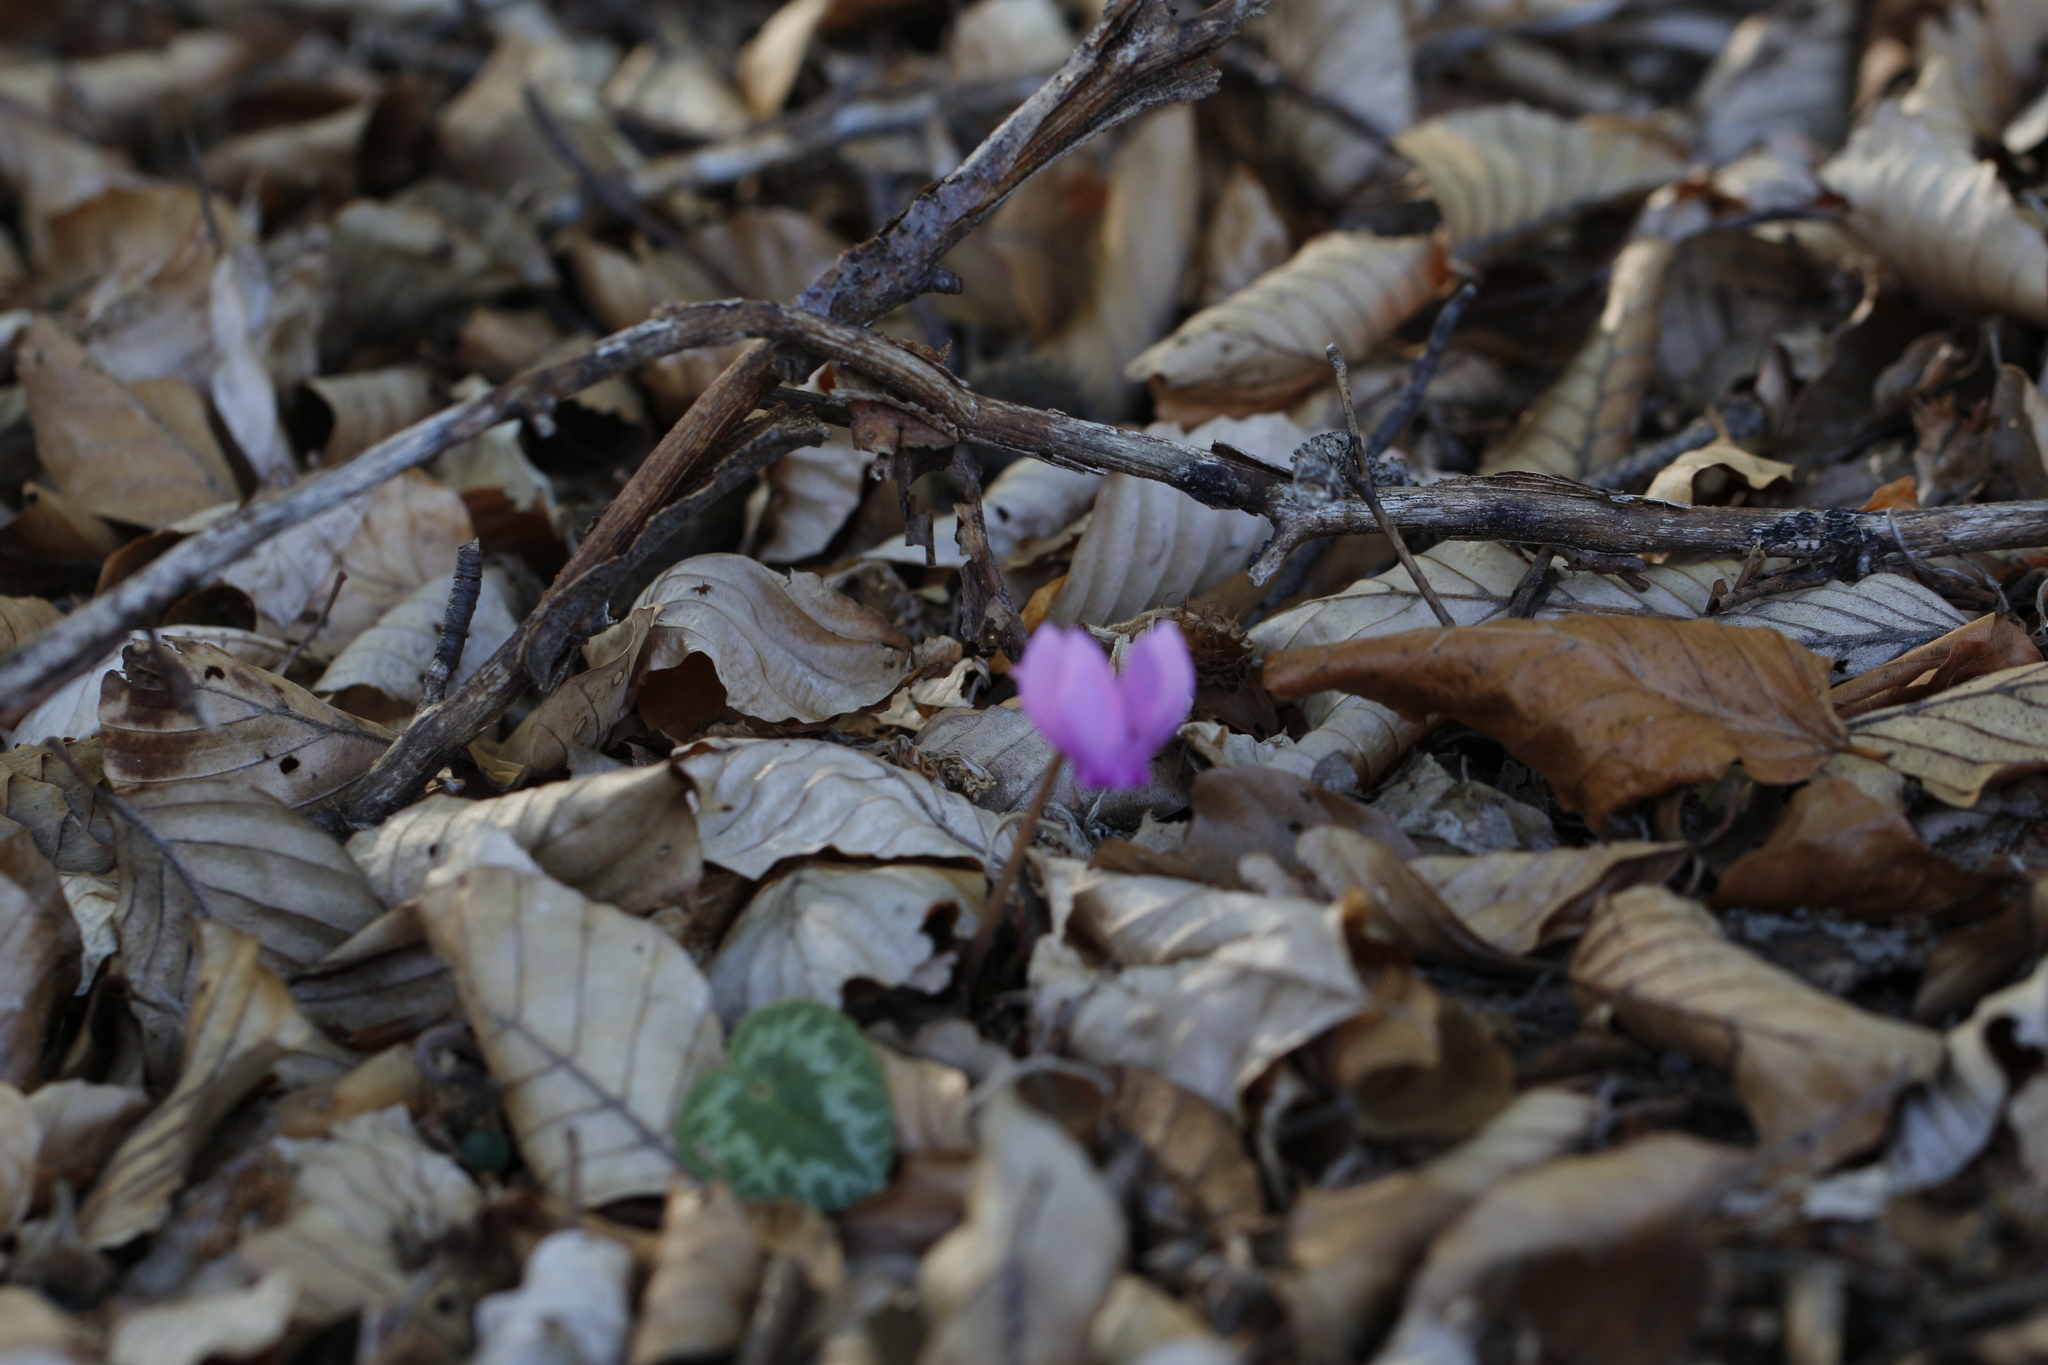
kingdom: Plantae
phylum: Tracheophyta
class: Magnoliopsida
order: Ericales
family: Primulaceae
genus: Cyclamen
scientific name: Cyclamen purpurascens
